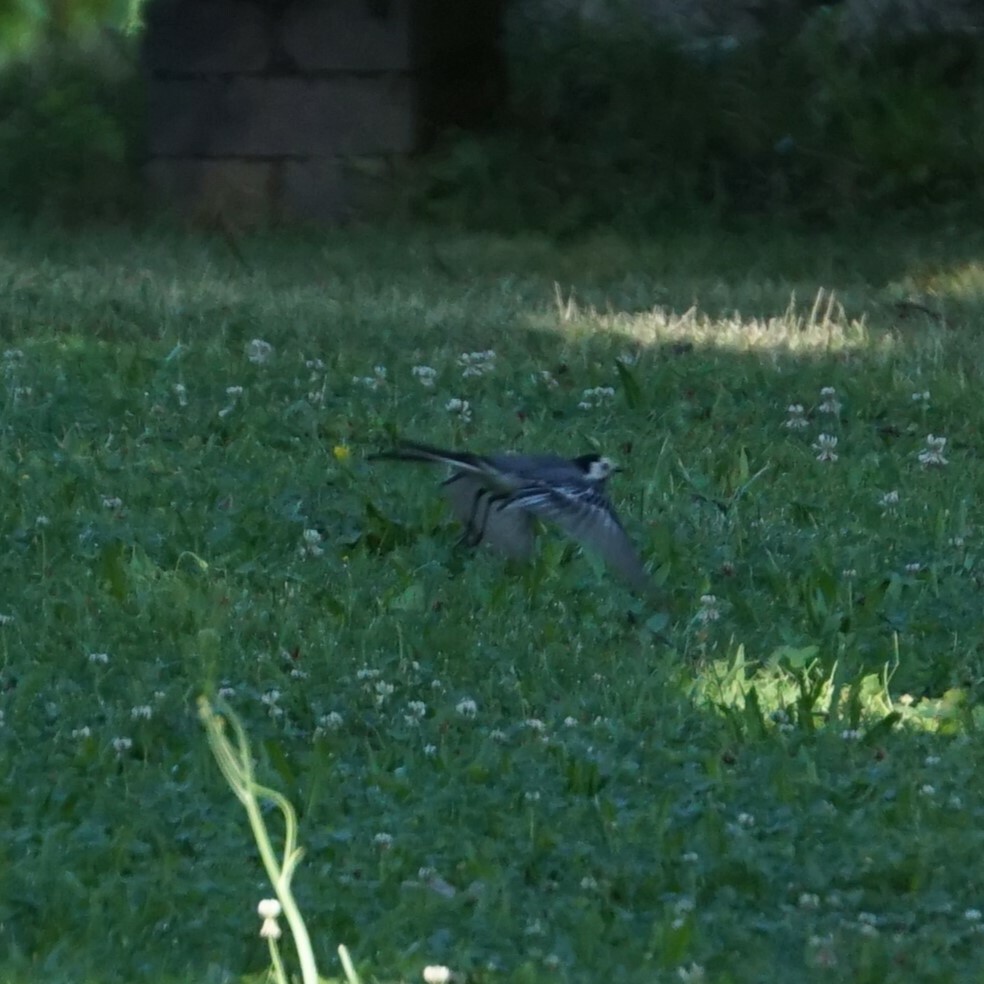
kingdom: Animalia
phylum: Chordata
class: Aves
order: Passeriformes
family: Motacillidae
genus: Motacilla
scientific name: Motacilla alba
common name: White wagtail
